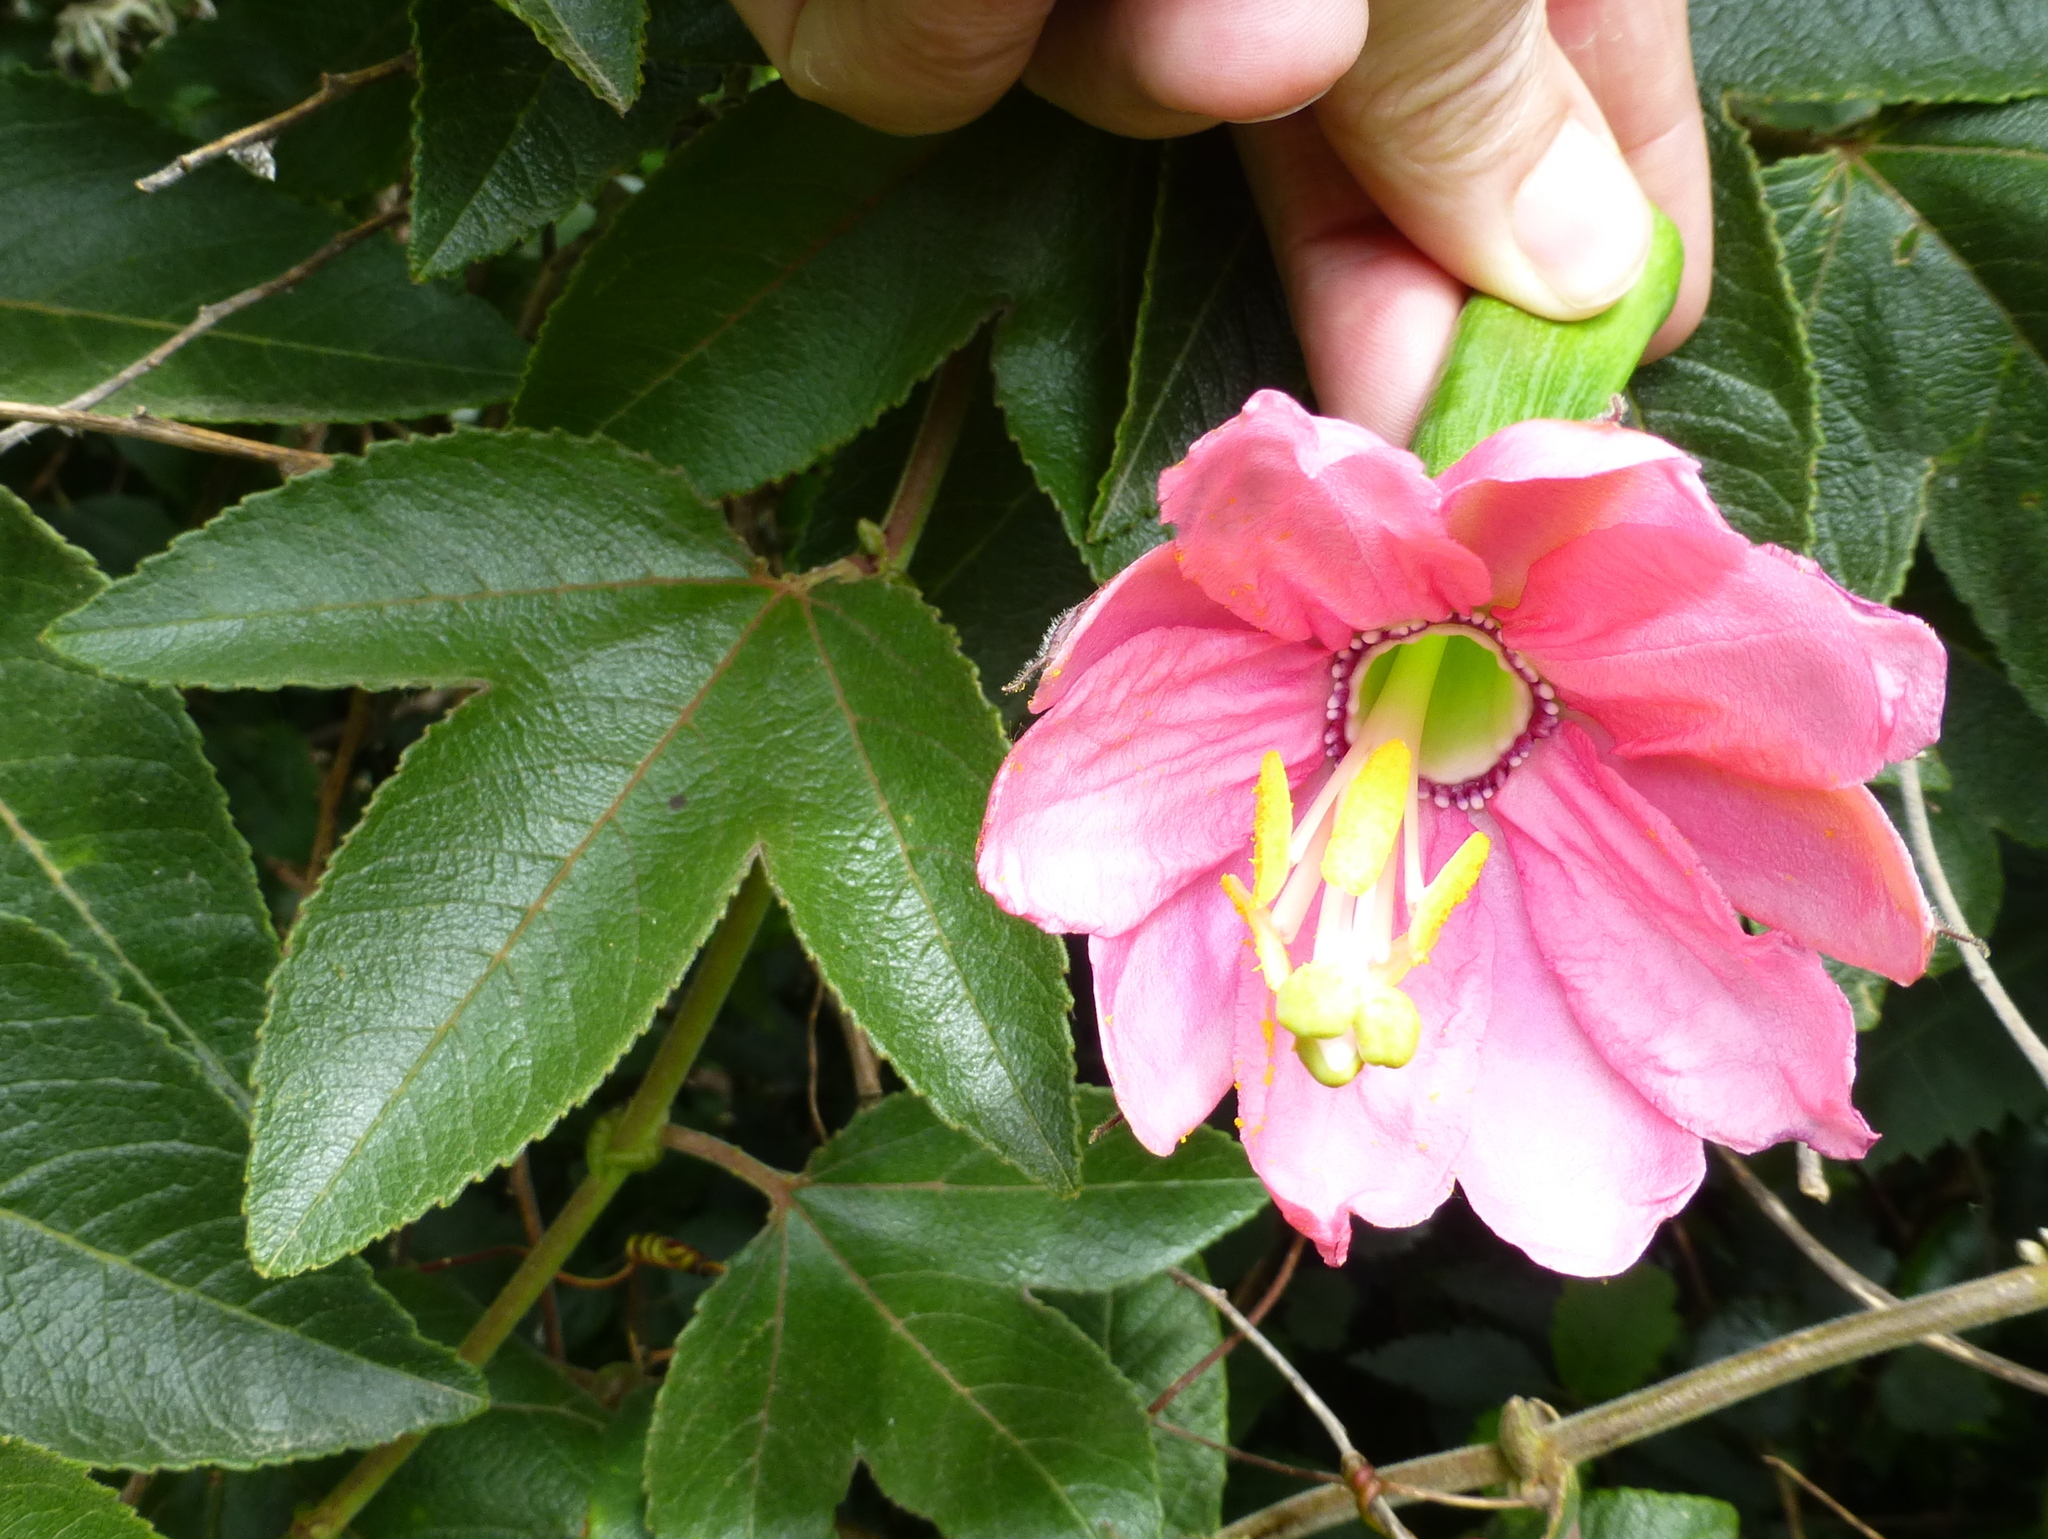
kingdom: Plantae
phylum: Tracheophyta
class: Magnoliopsida
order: Malpighiales
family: Passifloraceae
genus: Passiflora
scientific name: Passiflora tripartita
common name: Banana poka
